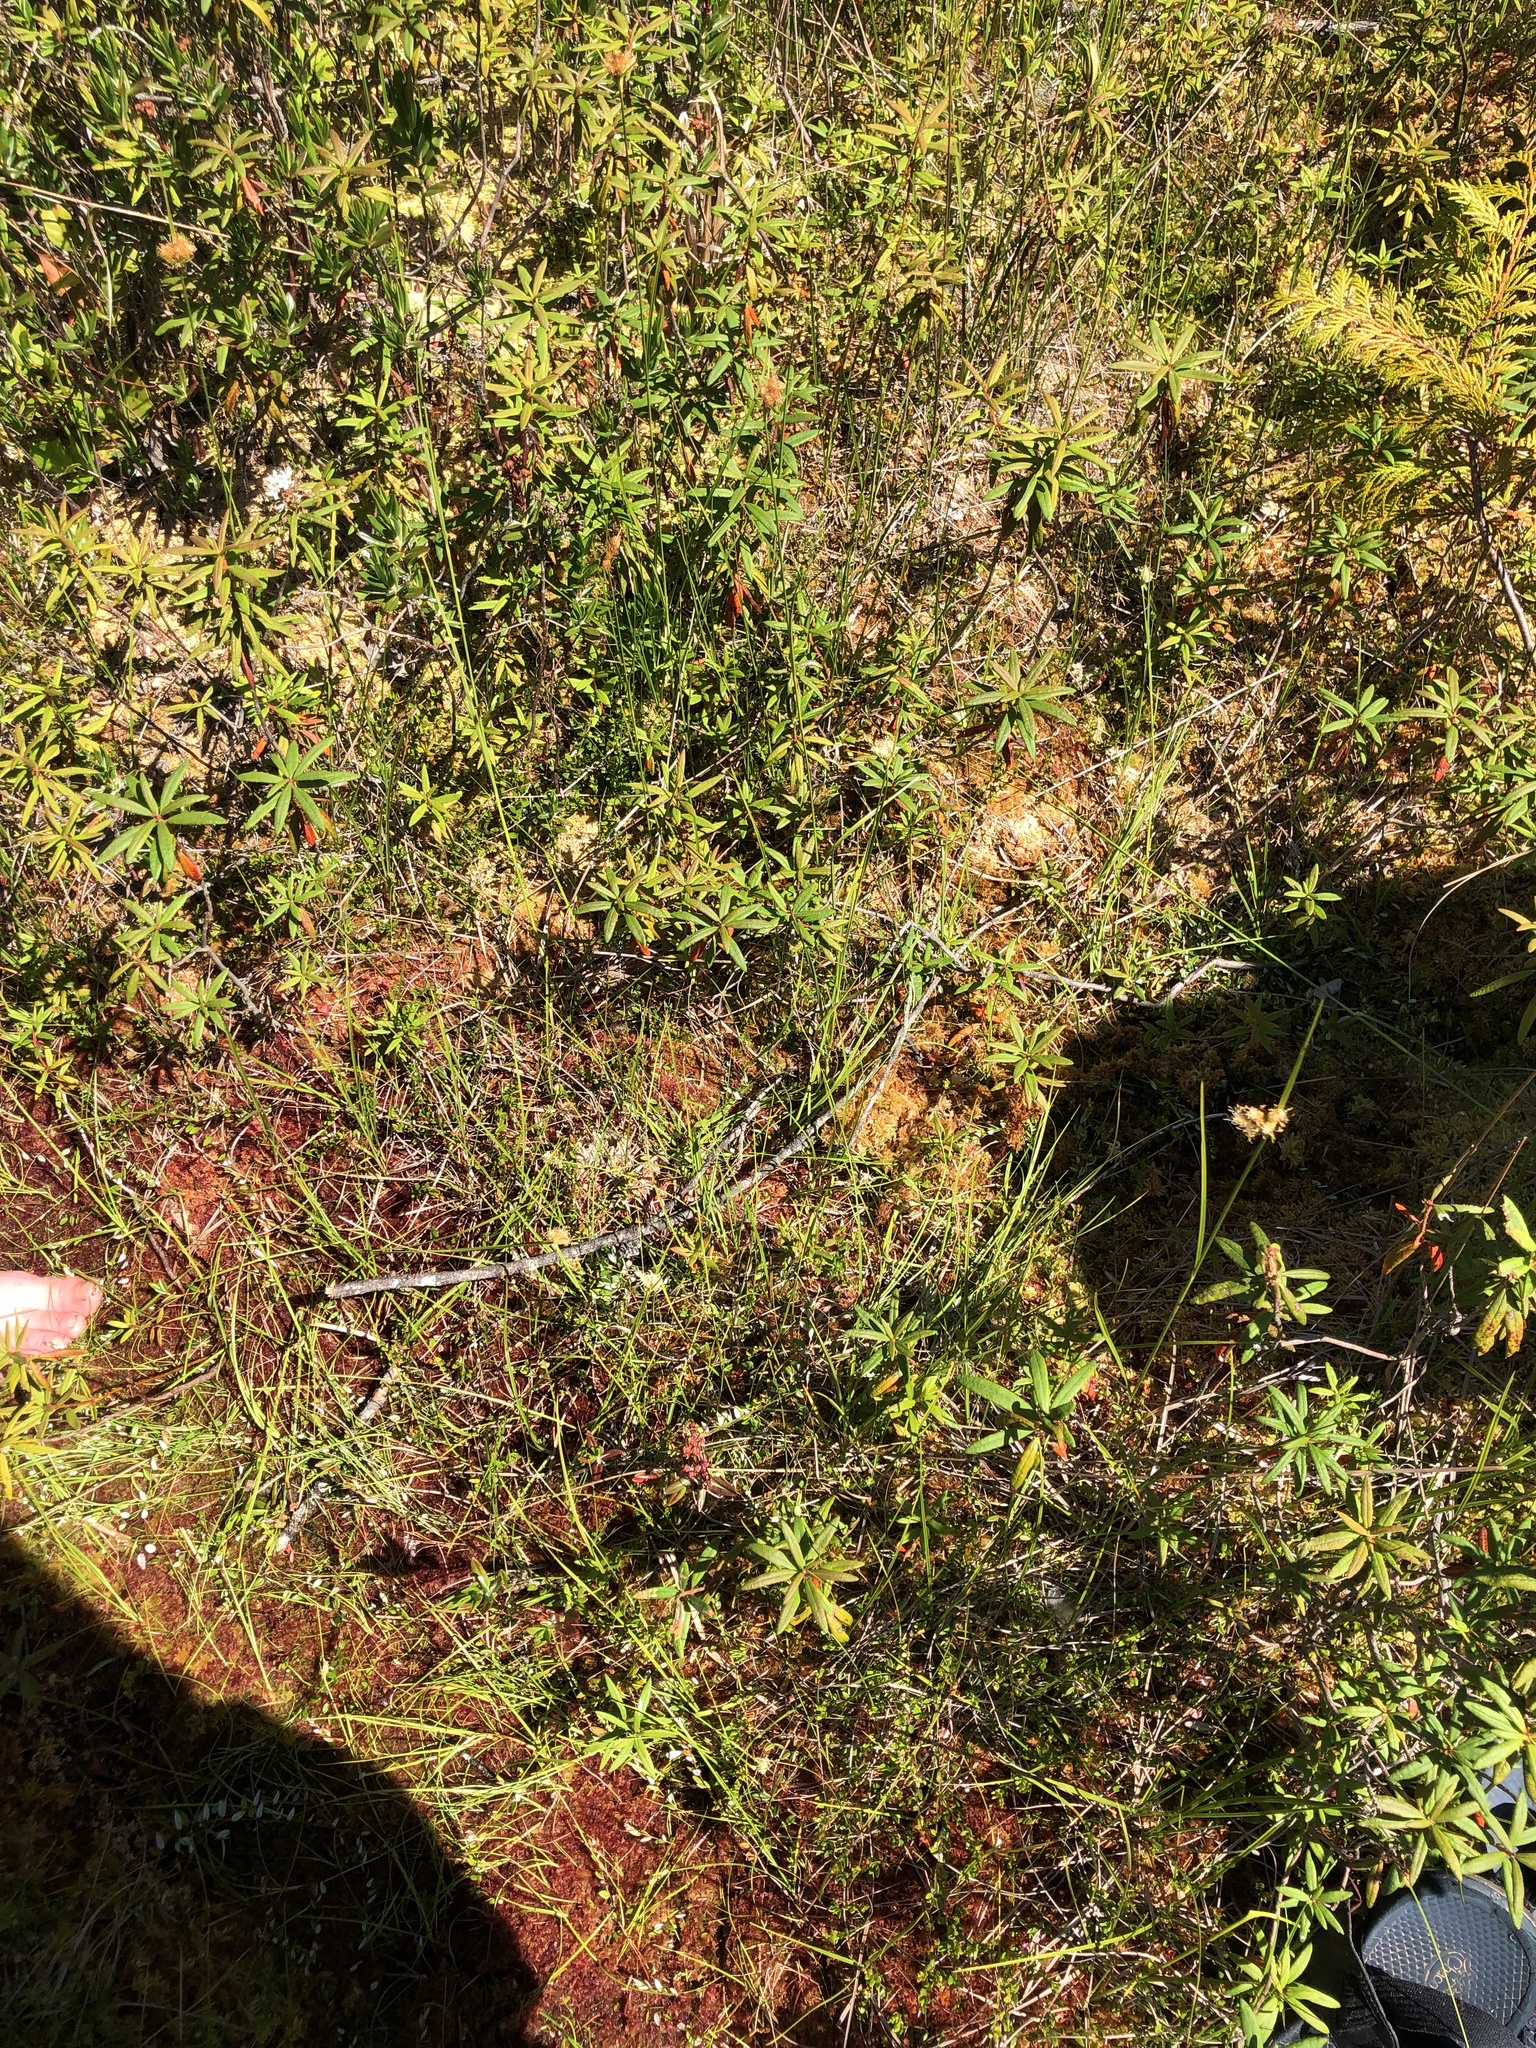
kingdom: Plantae
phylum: Tracheophyta
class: Magnoliopsida
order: Ericales
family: Ericaceae
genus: Kalmia
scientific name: Kalmia microphylla
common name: Alpine bog laurel
